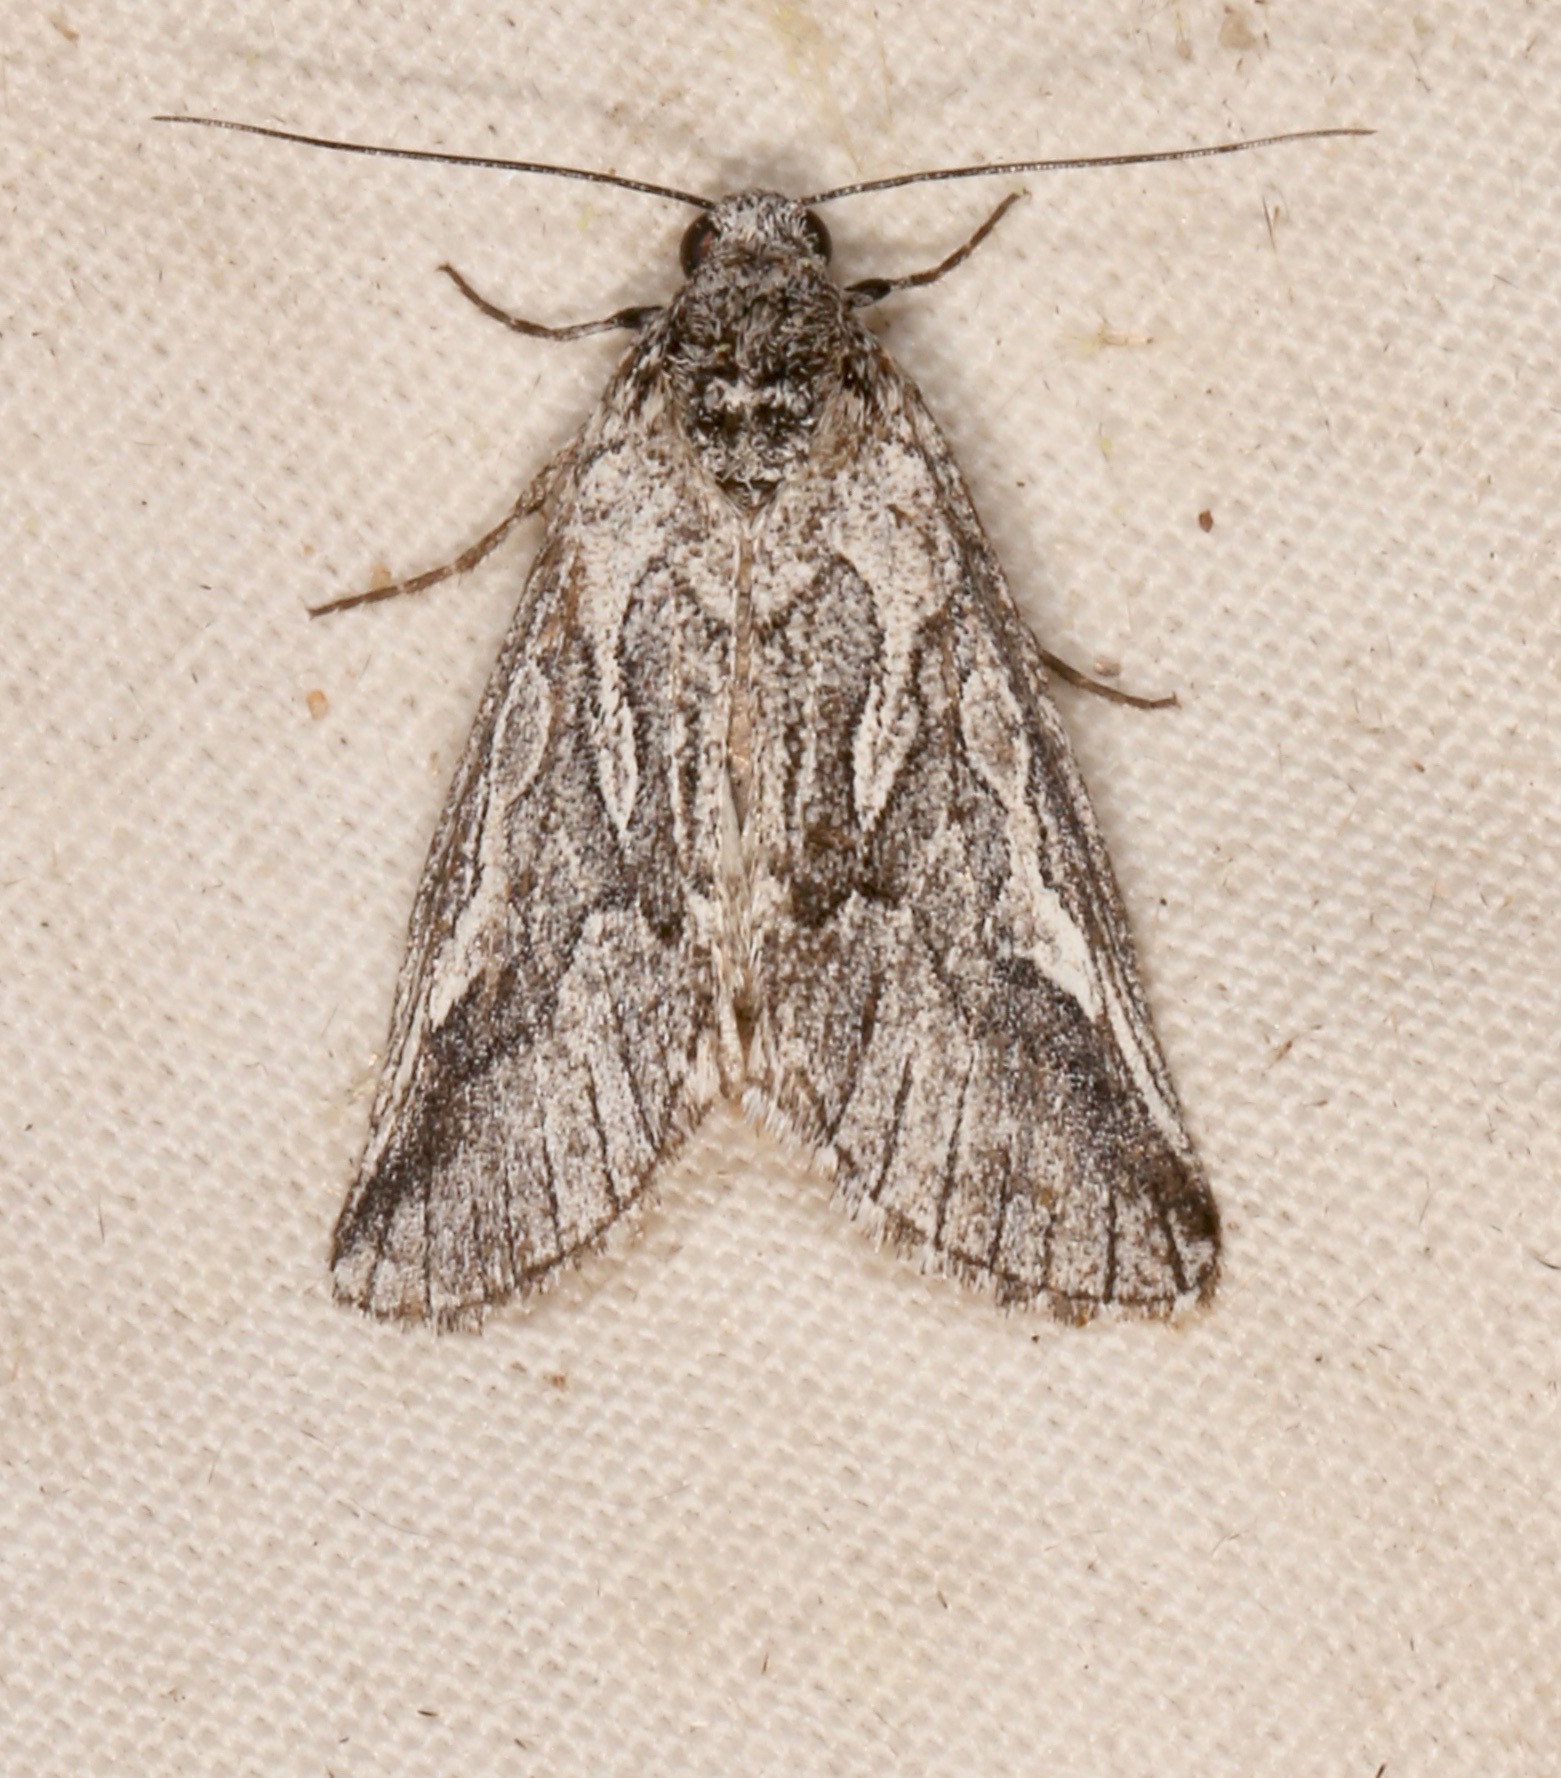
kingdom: Animalia
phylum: Arthropoda
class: Insecta
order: Lepidoptera
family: Noctuidae
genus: Oxycnemis
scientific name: Oxycnemis fusimacula
